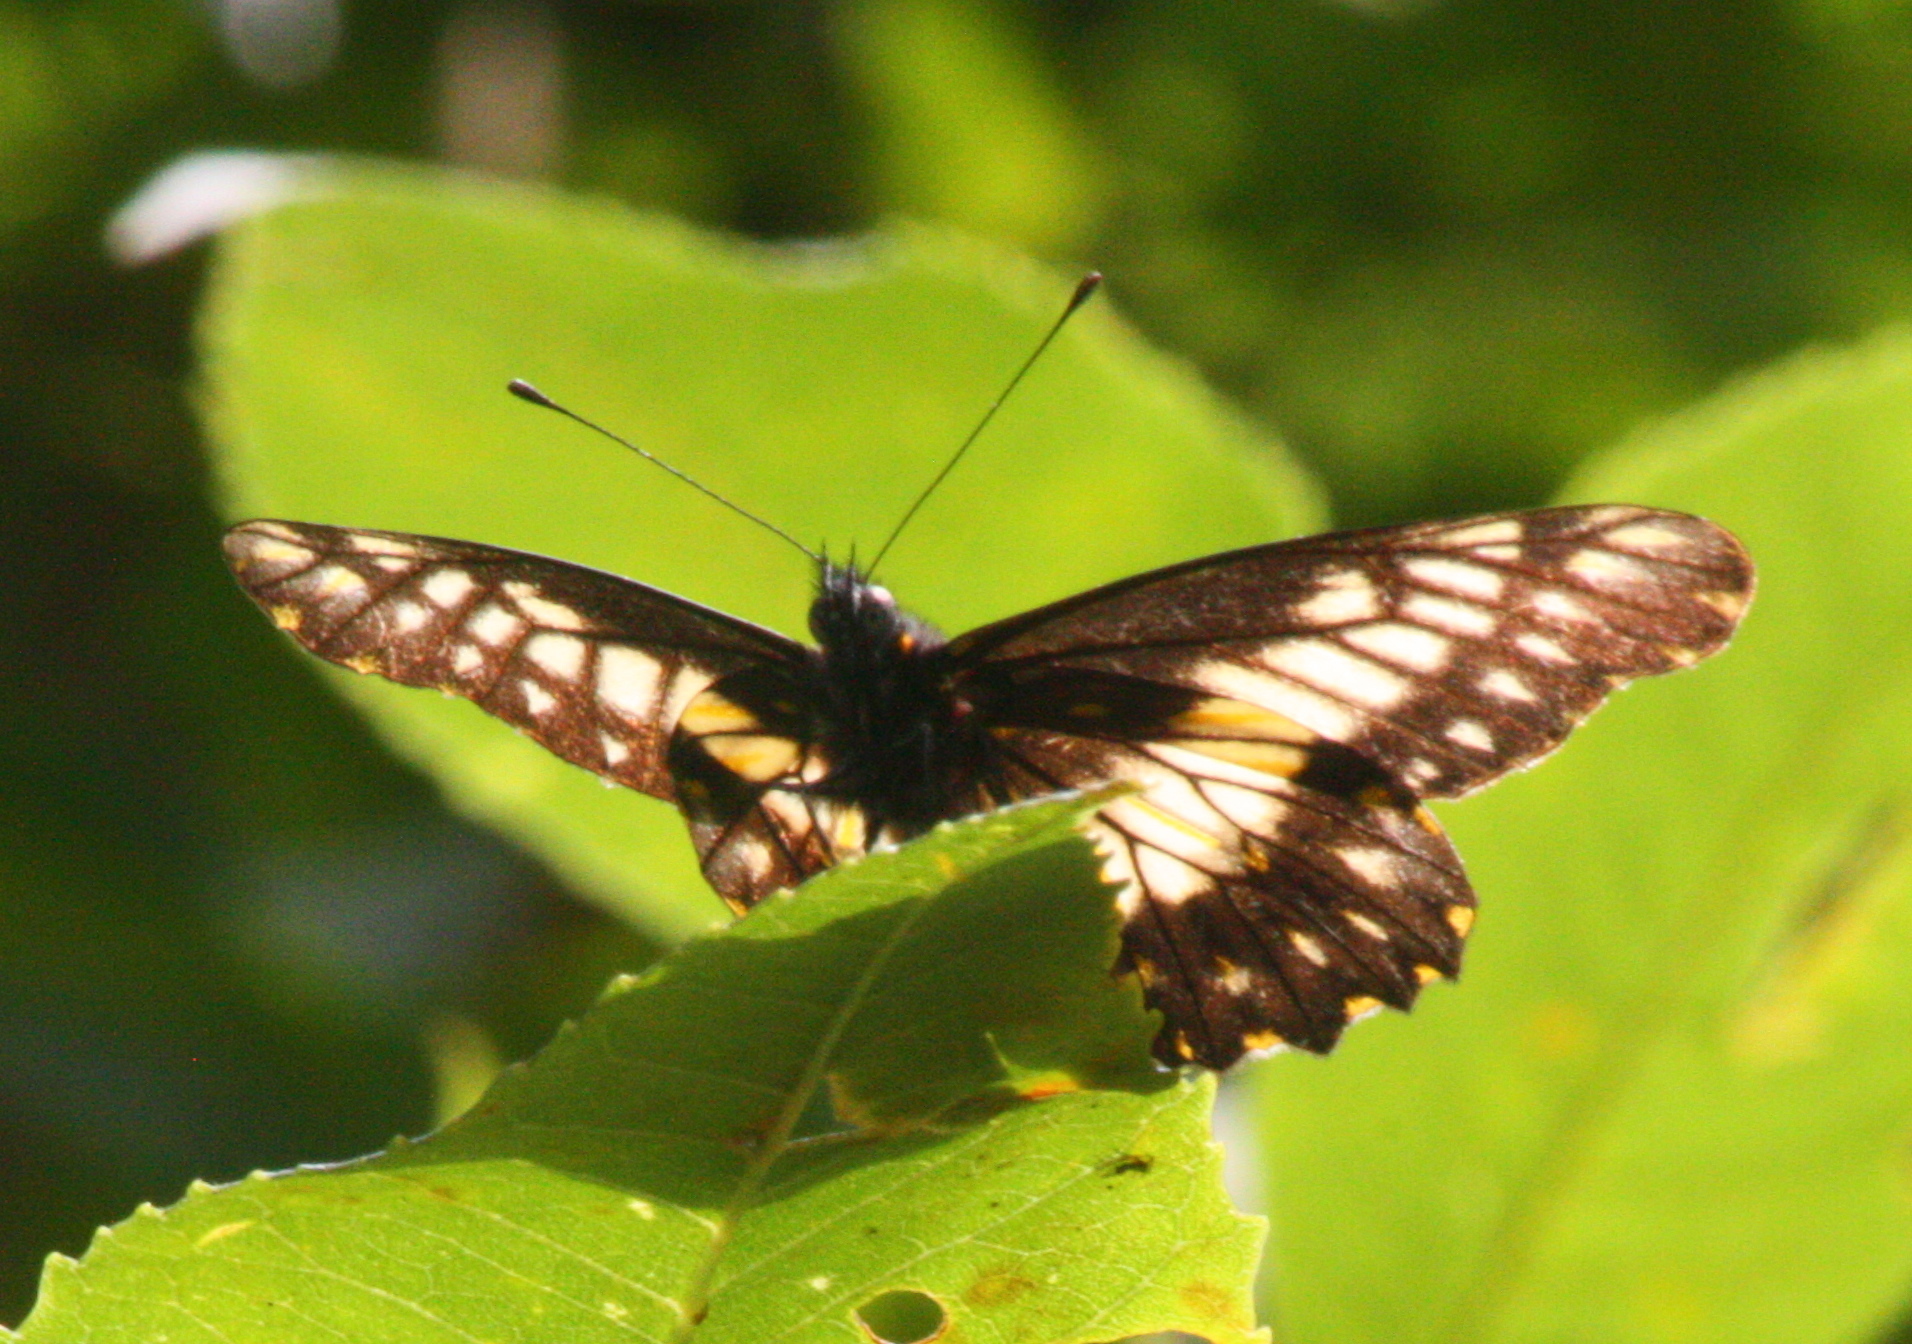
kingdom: Animalia
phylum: Arthropoda
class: Insecta
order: Lepidoptera
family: Pieridae
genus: Archonias
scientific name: Archonias nimbice
